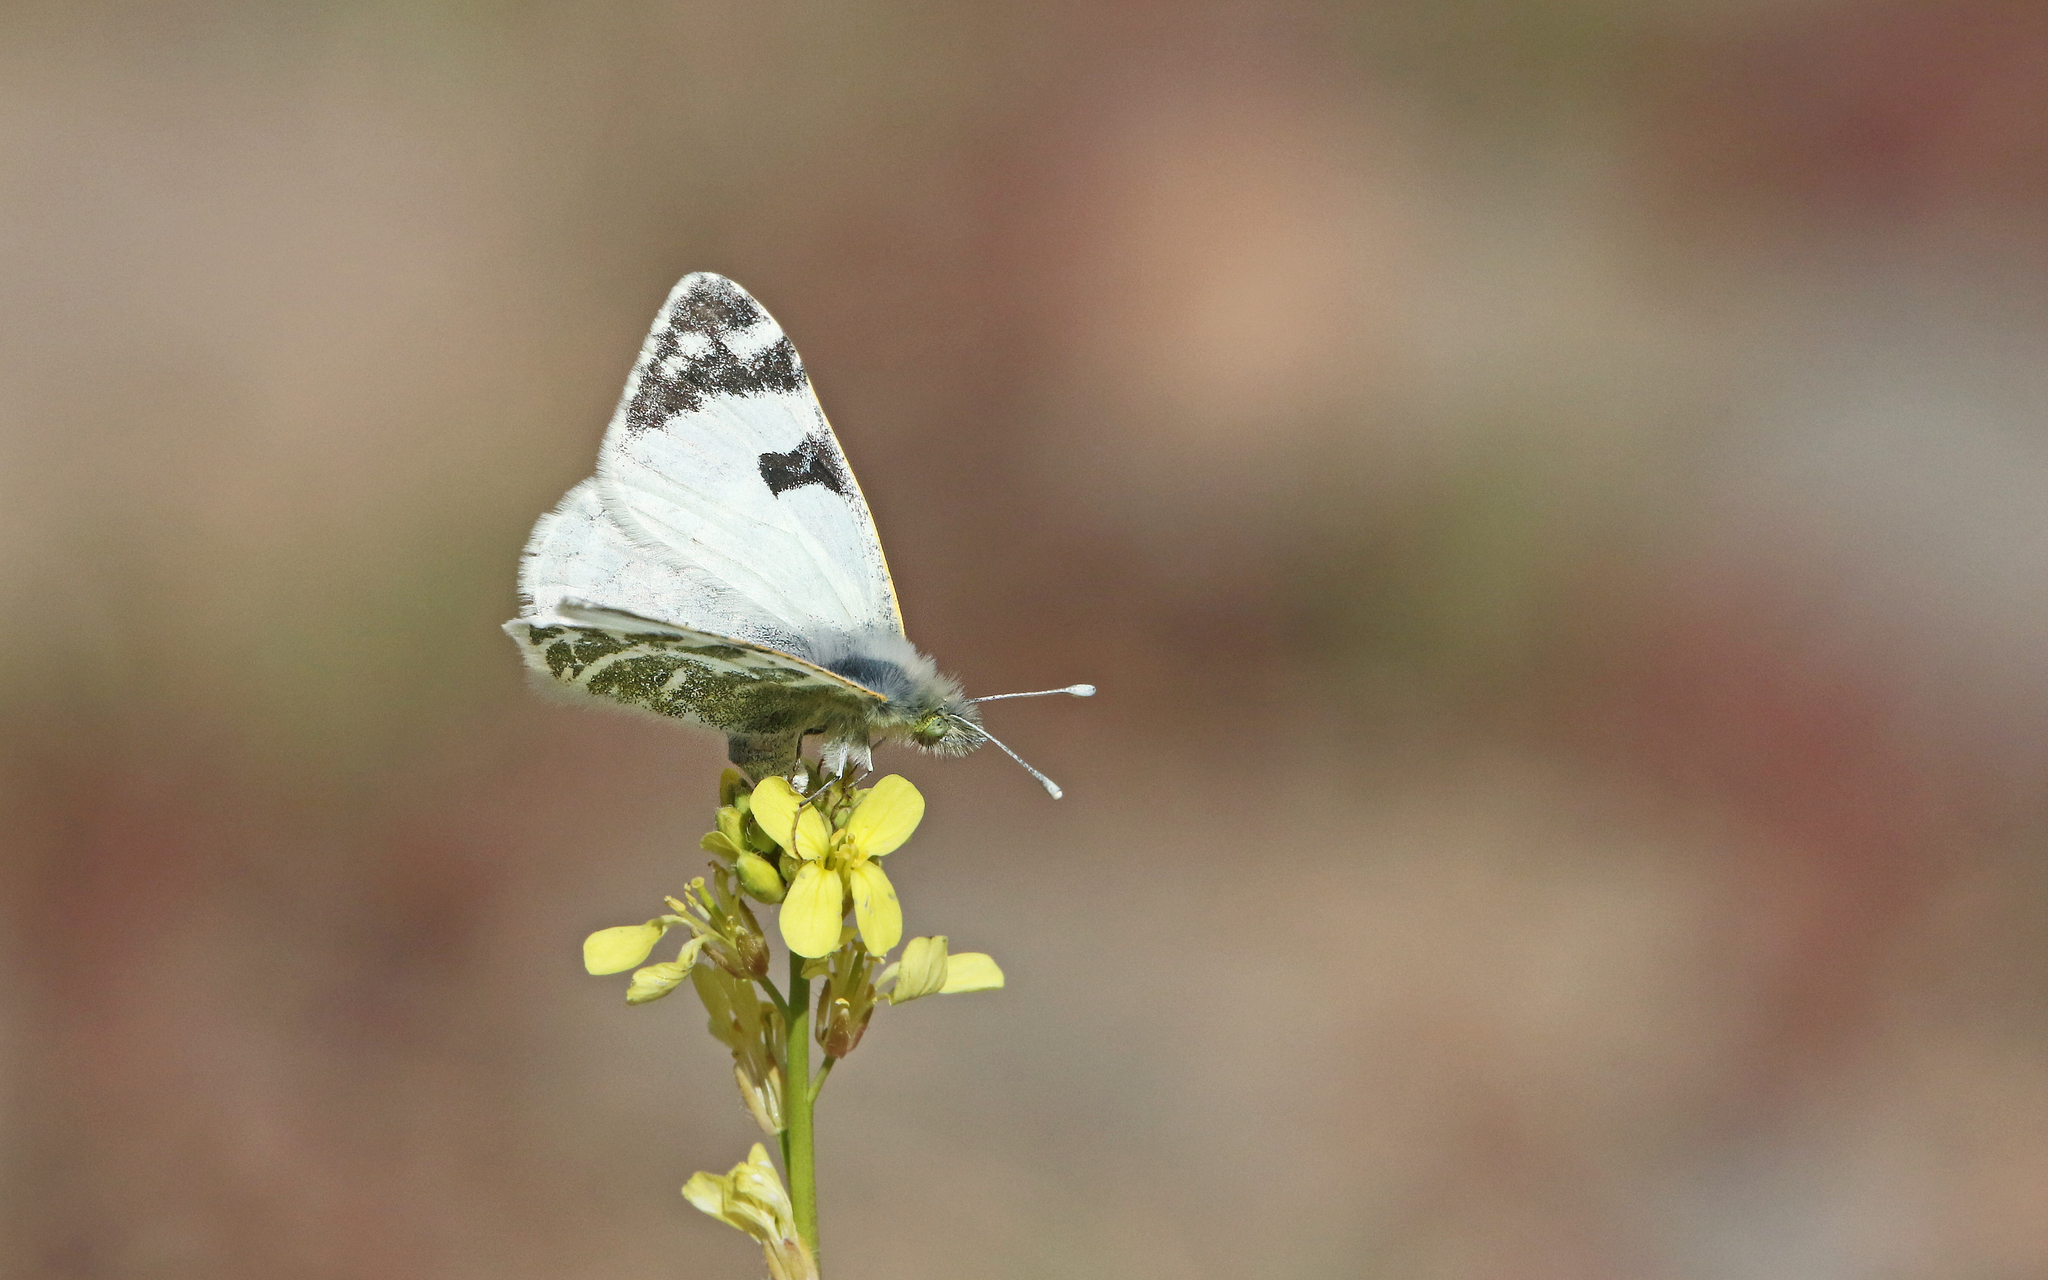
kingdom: Animalia
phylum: Arthropoda
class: Insecta
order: Lepidoptera
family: Pieridae
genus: Euchloe
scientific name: Euchloe grancanariensis
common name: Gran canaria green-striped white
